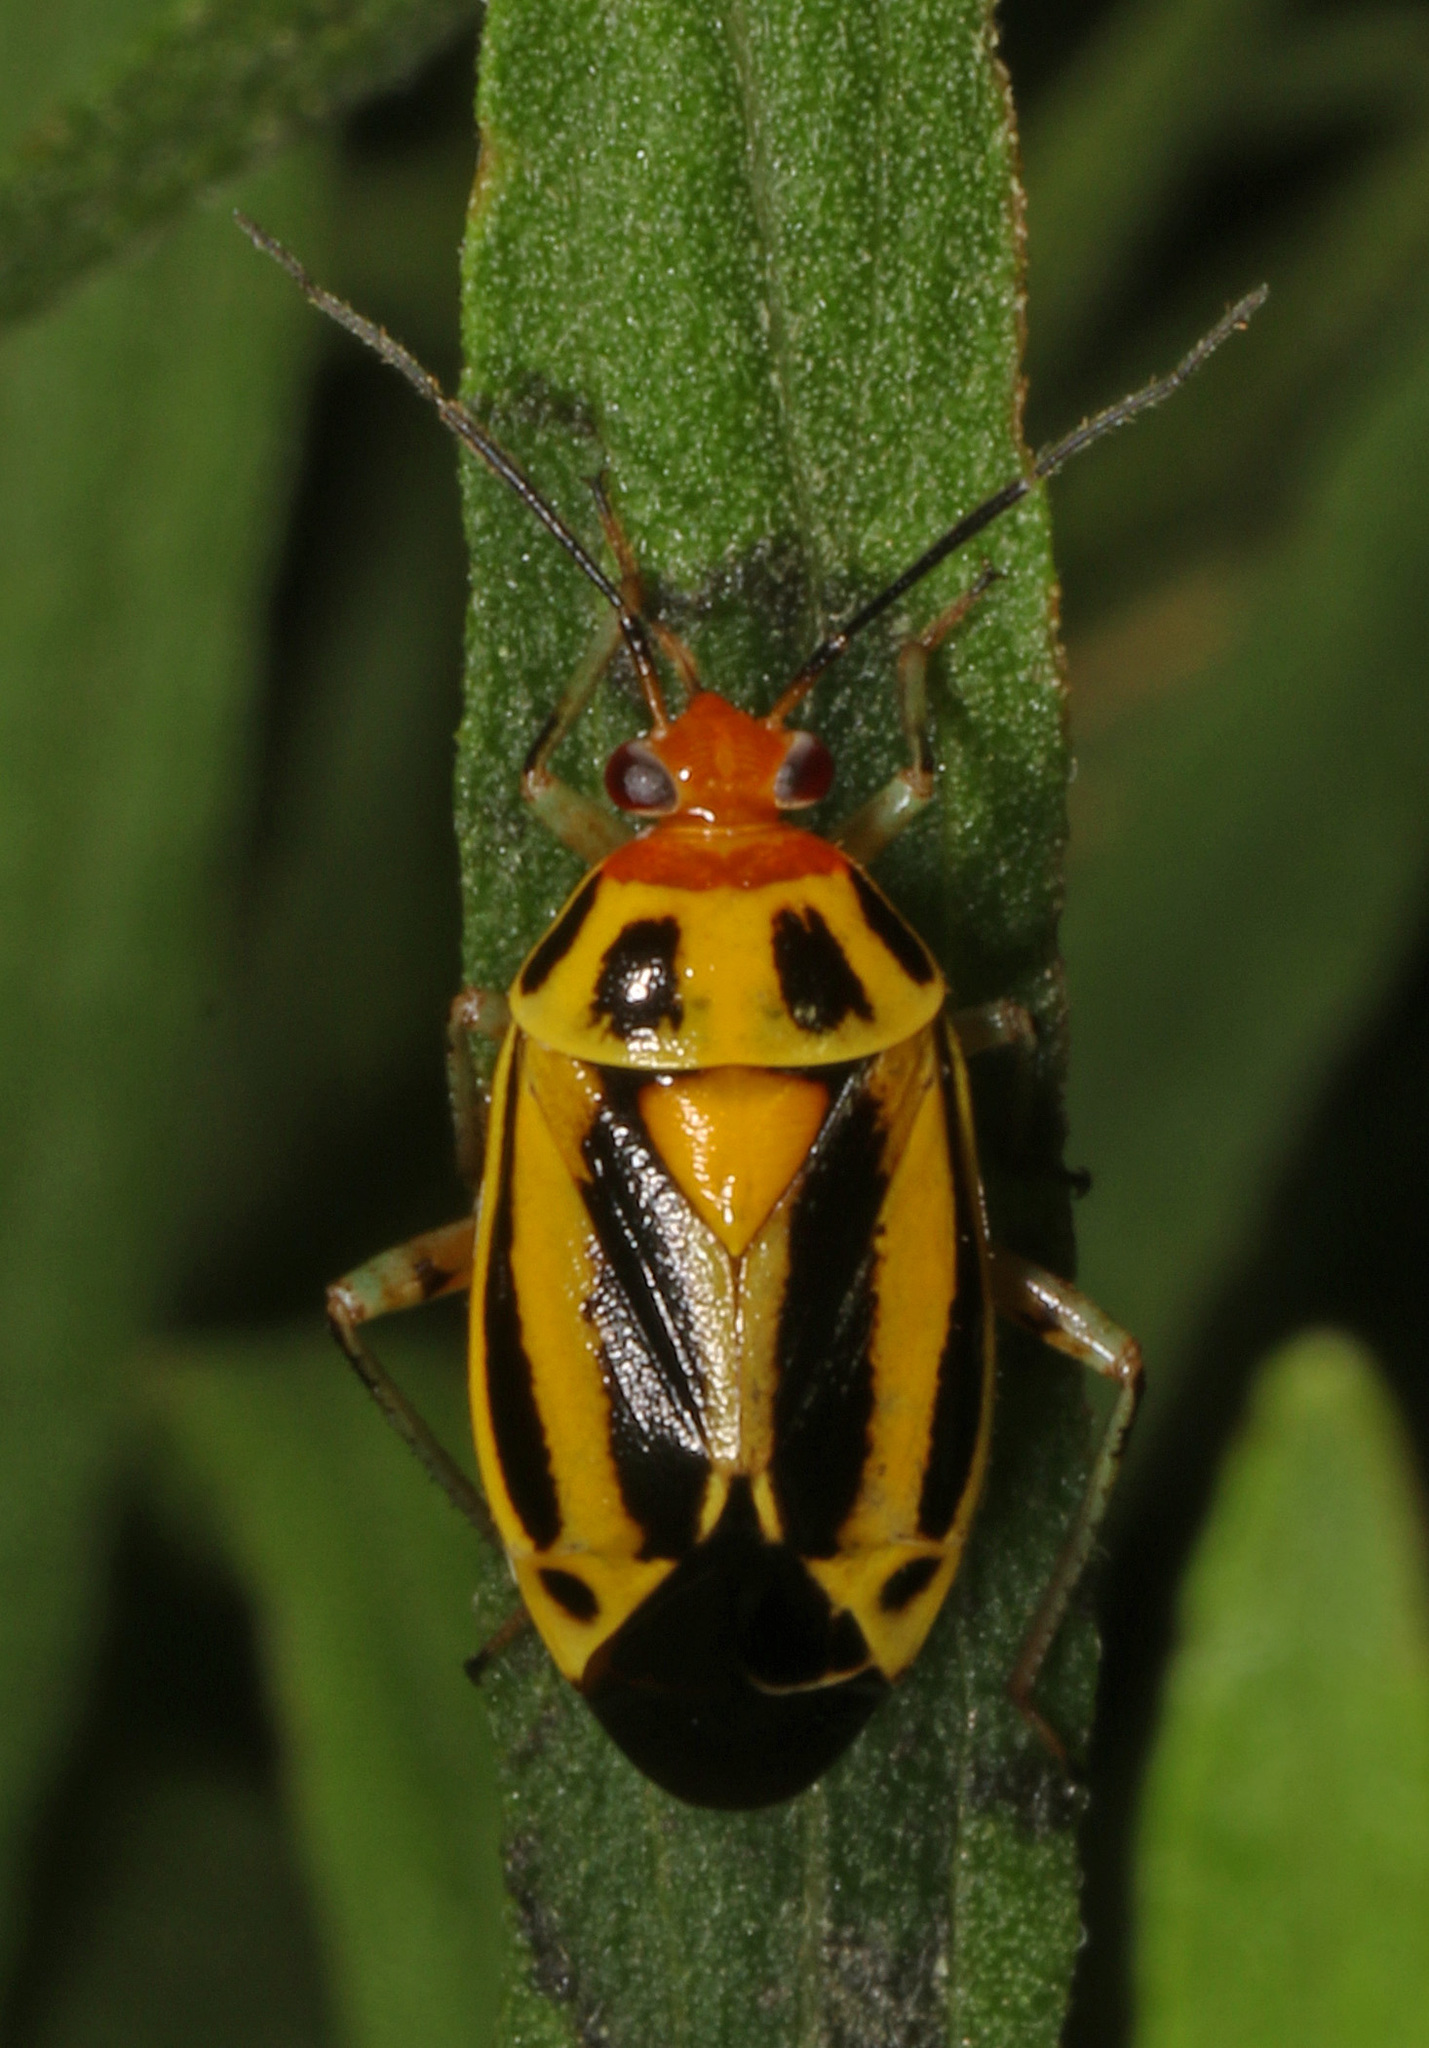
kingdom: Animalia
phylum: Arthropoda
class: Insecta
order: Hemiptera
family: Miridae
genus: Poecilocapsus
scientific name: Poecilocapsus lineatus
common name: Four-lined plant bug
